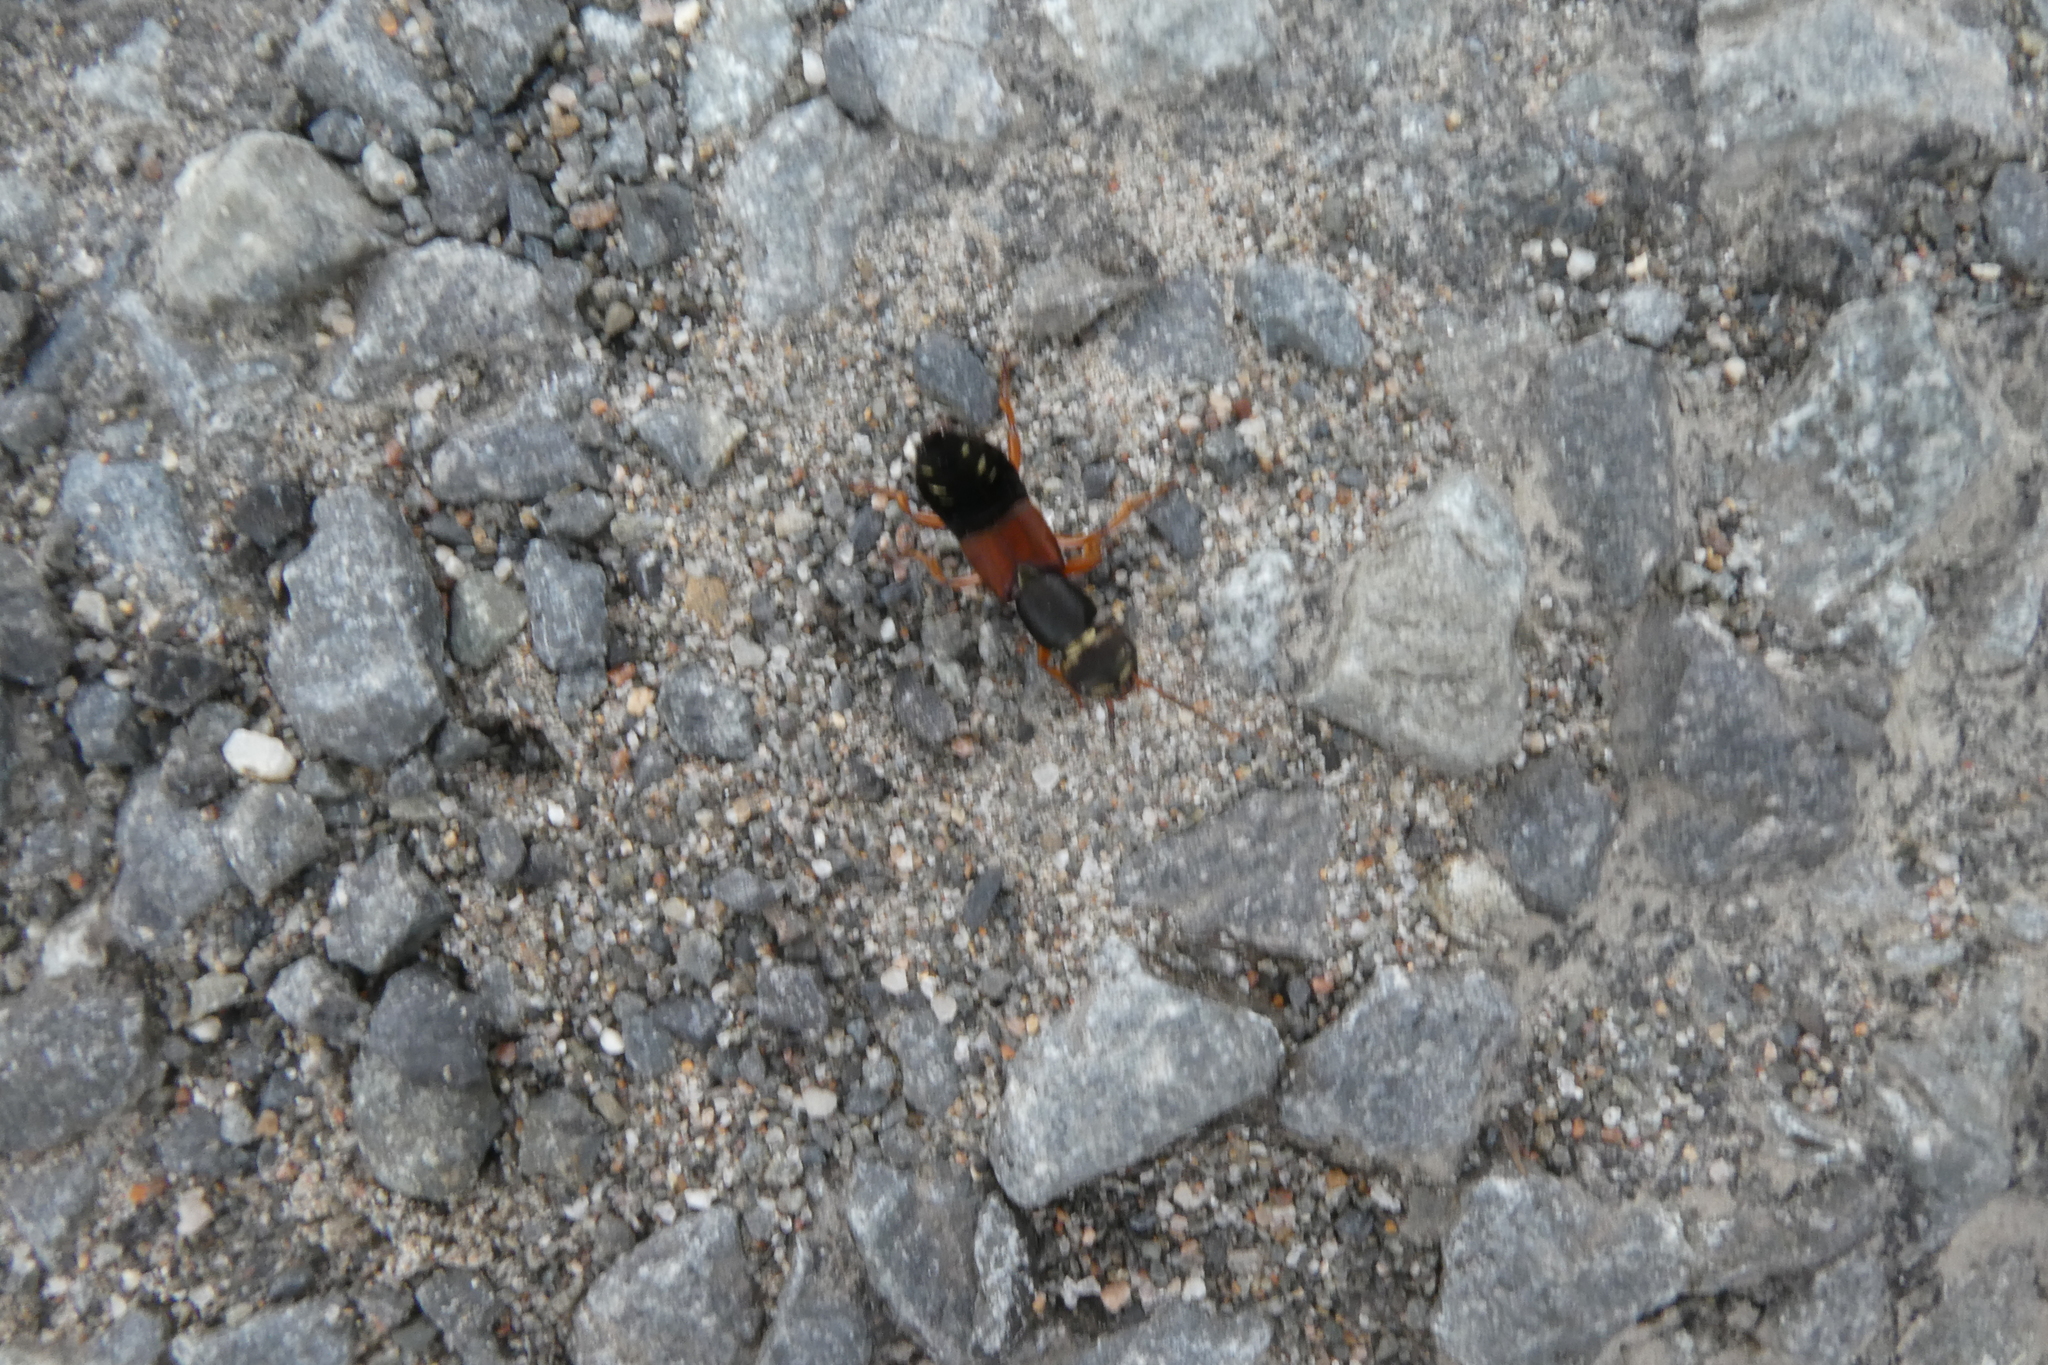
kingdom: Animalia
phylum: Arthropoda
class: Insecta
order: Coleoptera
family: Staphylinidae
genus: Staphylinus
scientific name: Staphylinus erythropterus
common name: Staph beetle
